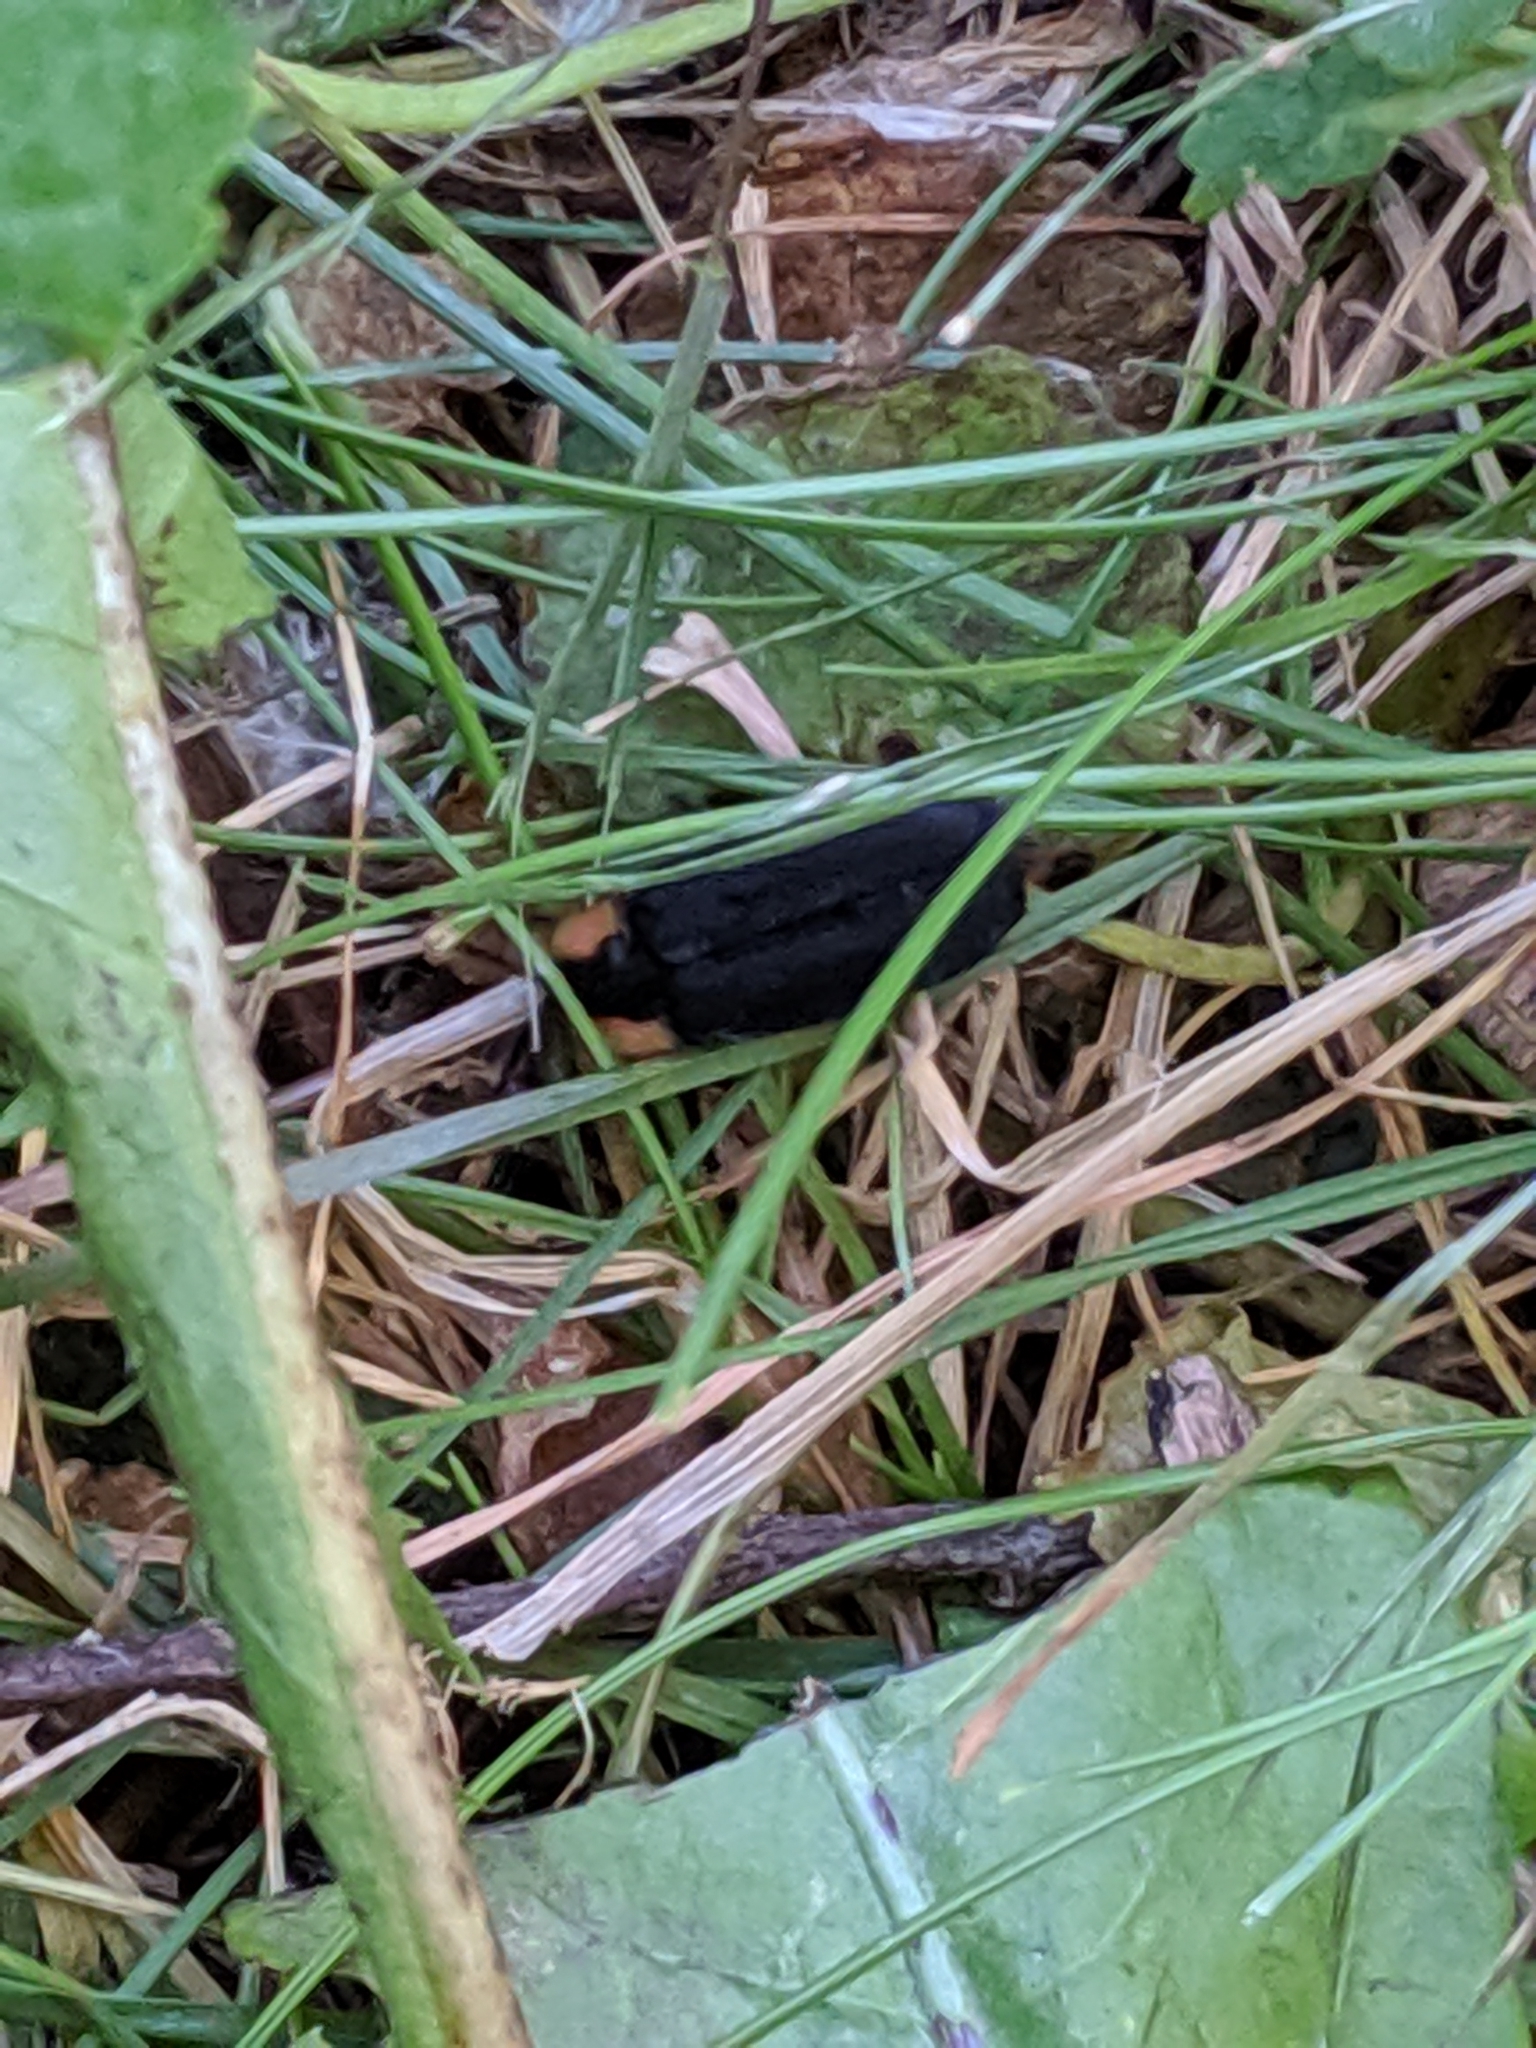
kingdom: Animalia
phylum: Arthropoda
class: Insecta
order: Coleoptera
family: Lampyridae
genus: Lucidota
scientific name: Lucidota atra
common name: Black firefly
